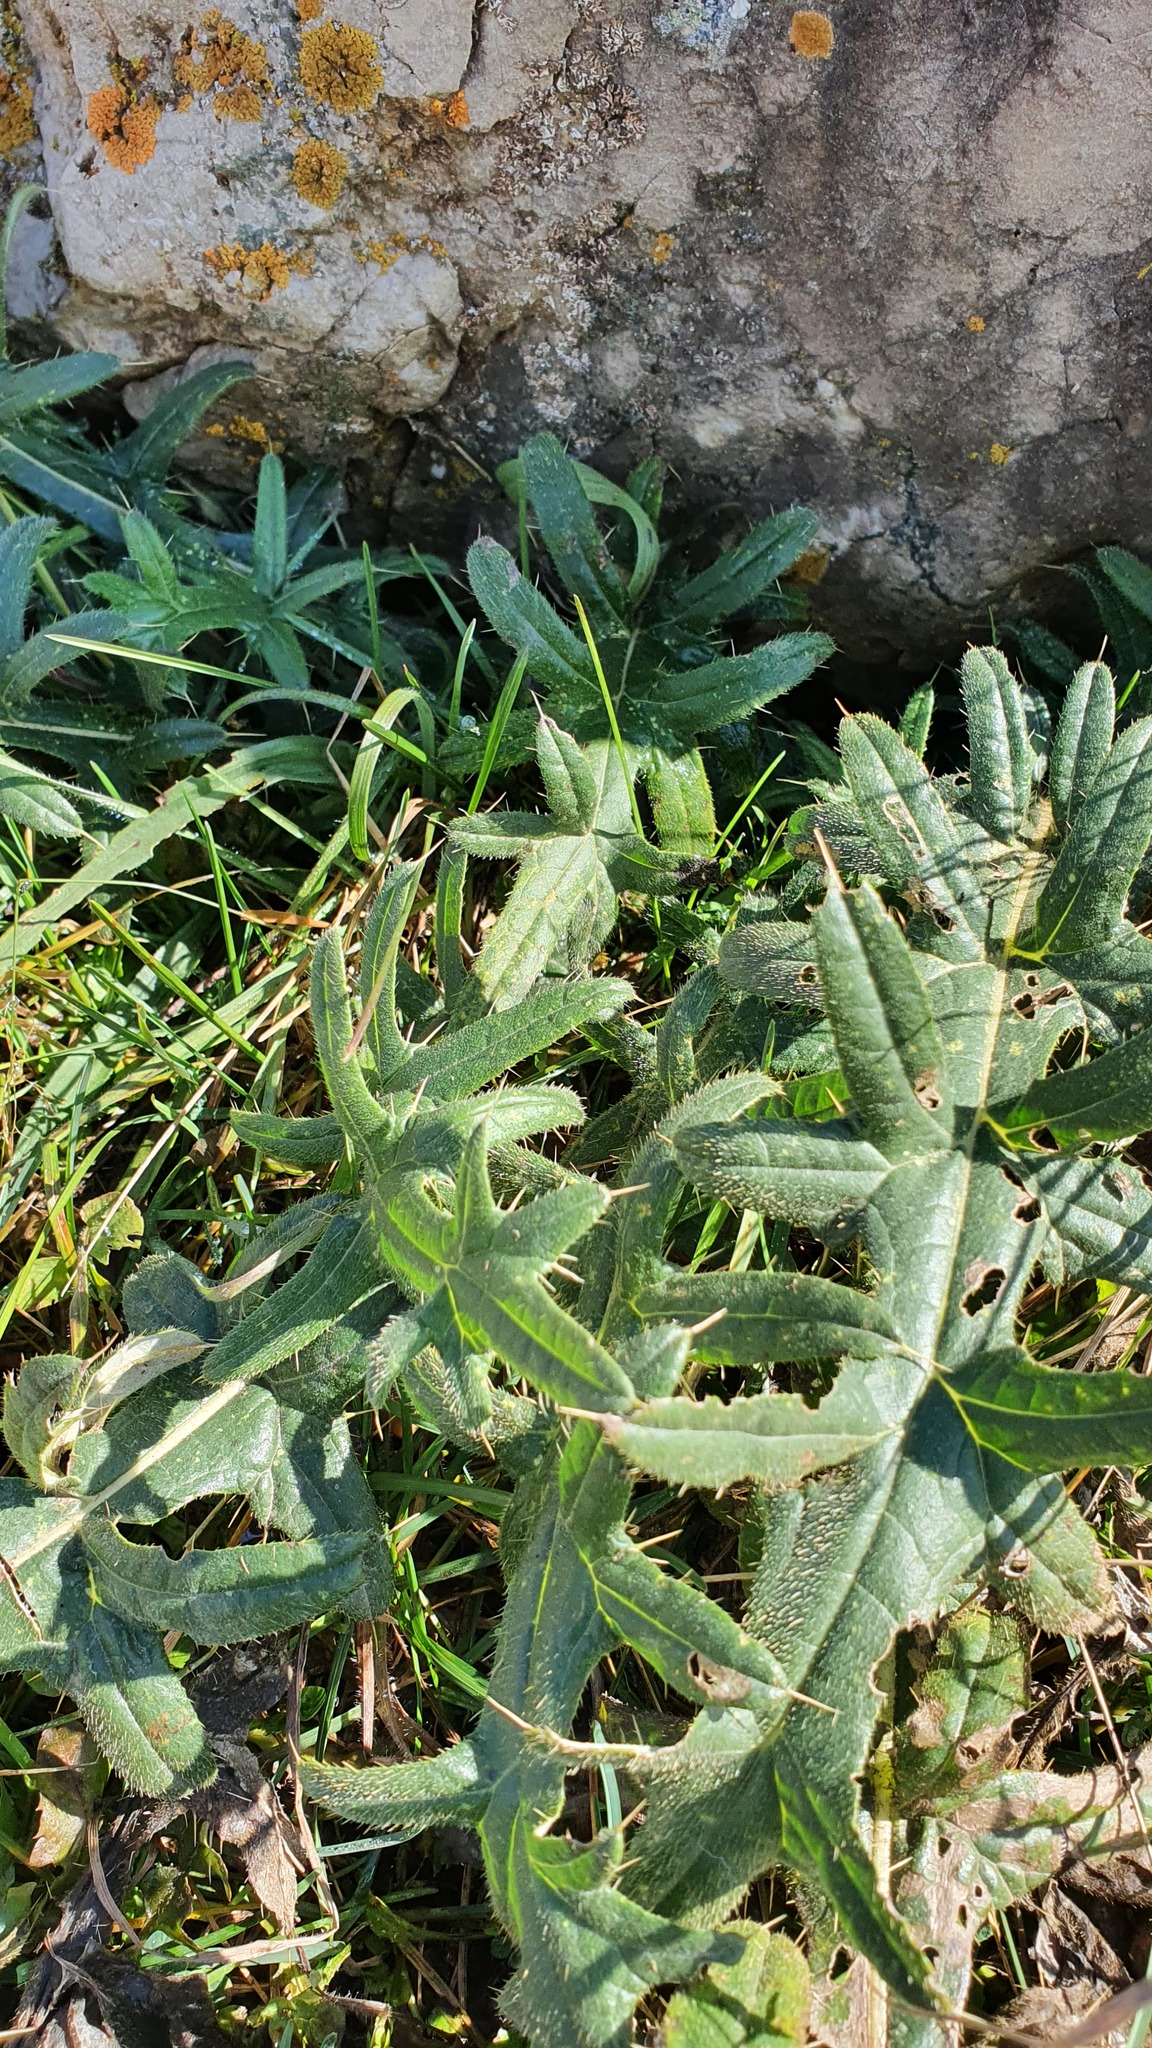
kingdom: Plantae
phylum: Tracheophyta
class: Magnoliopsida
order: Asterales
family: Asteraceae
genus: Cirsium
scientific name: Cirsium vulgare
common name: Bull thistle
